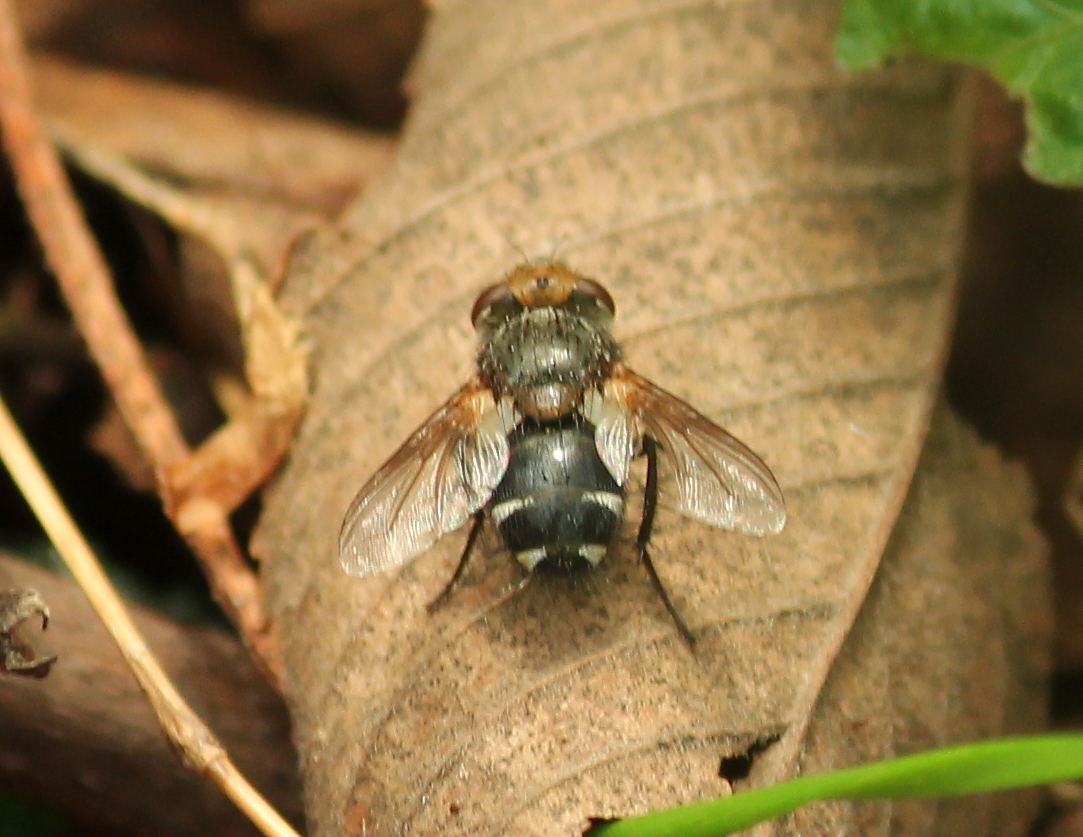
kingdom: Animalia
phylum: Arthropoda
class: Insecta
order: Diptera
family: Tachinidae
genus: Gonia
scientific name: Gonia frontosa
